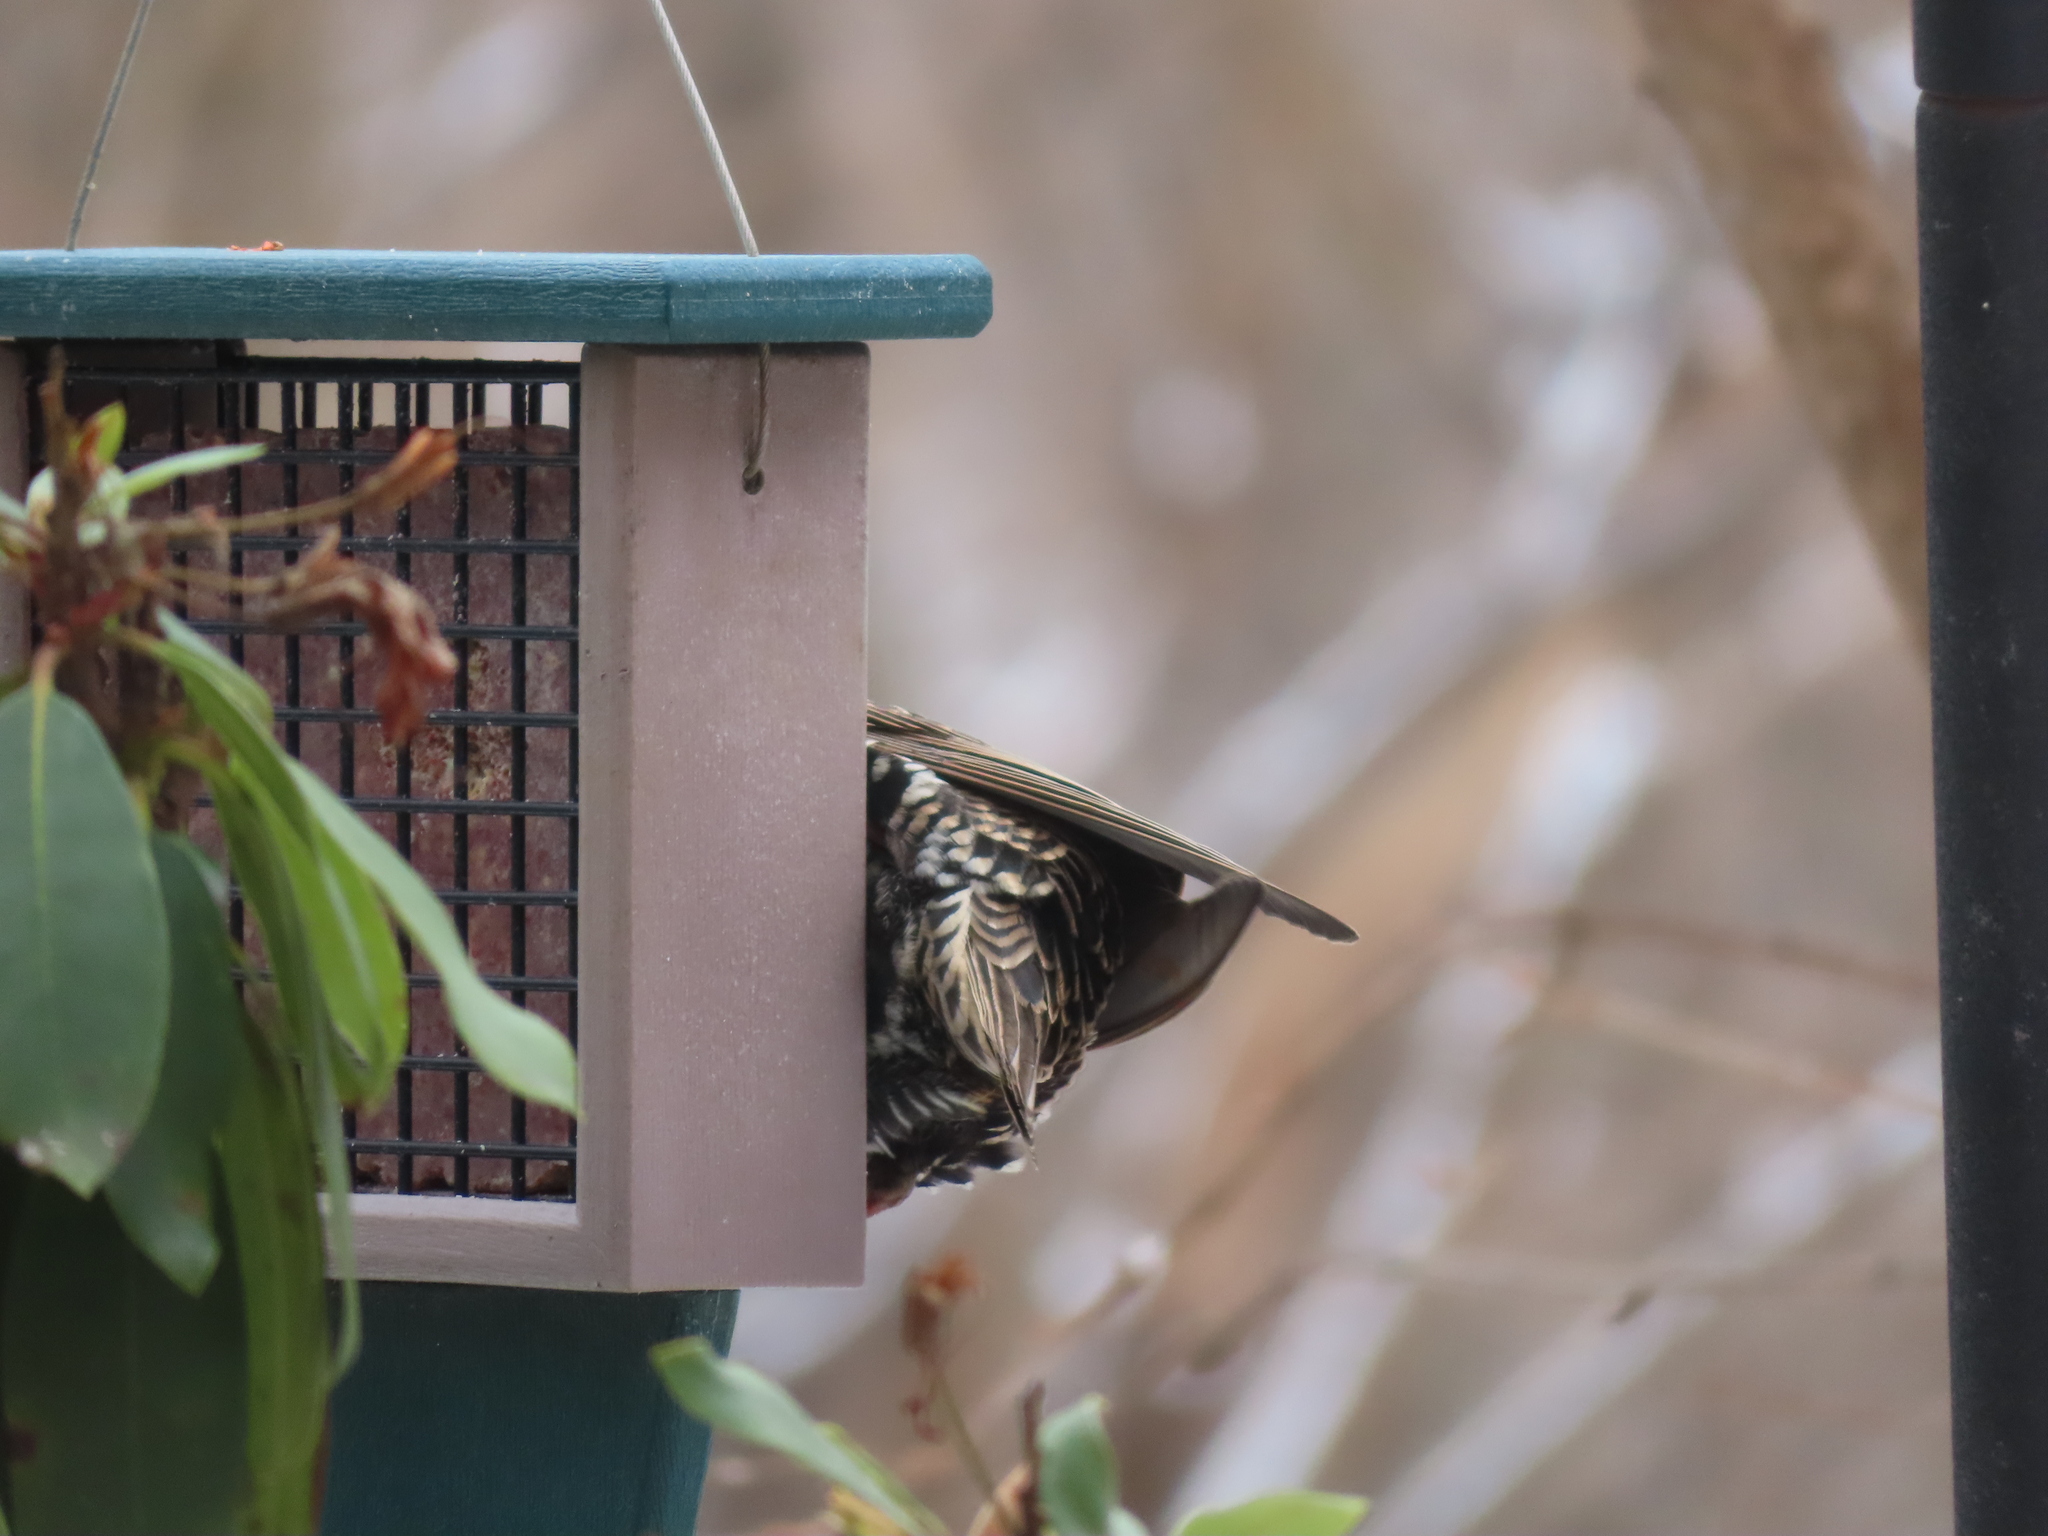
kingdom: Animalia
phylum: Chordata
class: Aves
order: Passeriformes
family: Sturnidae
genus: Sturnus
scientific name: Sturnus vulgaris
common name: Common starling
